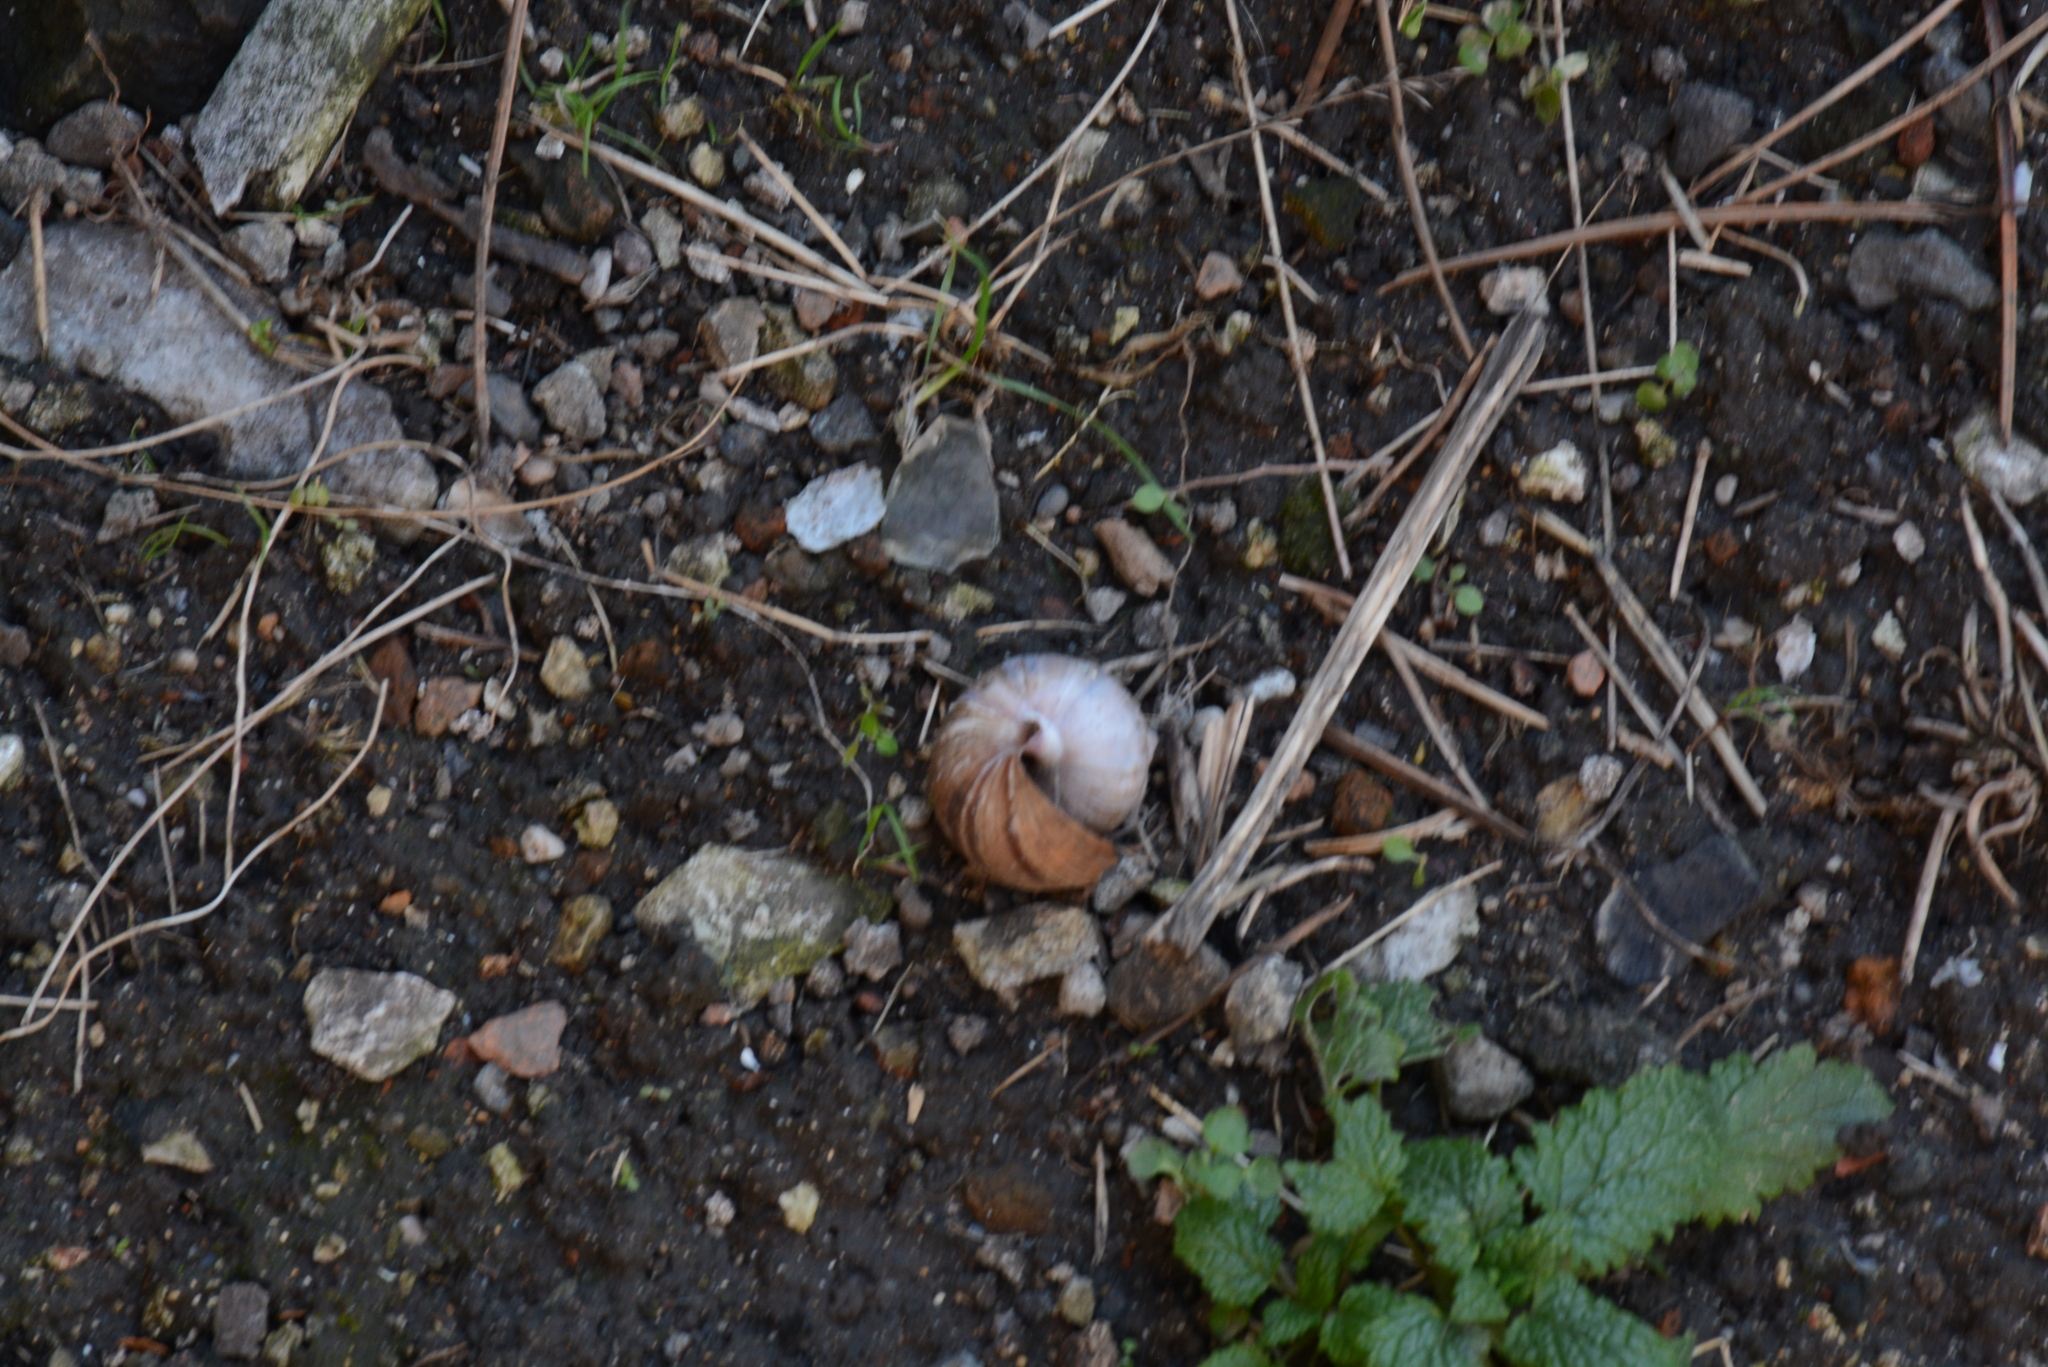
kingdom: Animalia
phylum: Mollusca
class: Gastropoda
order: Stylommatophora
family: Helicidae
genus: Helix
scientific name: Helix lucorum
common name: Turkish snail
